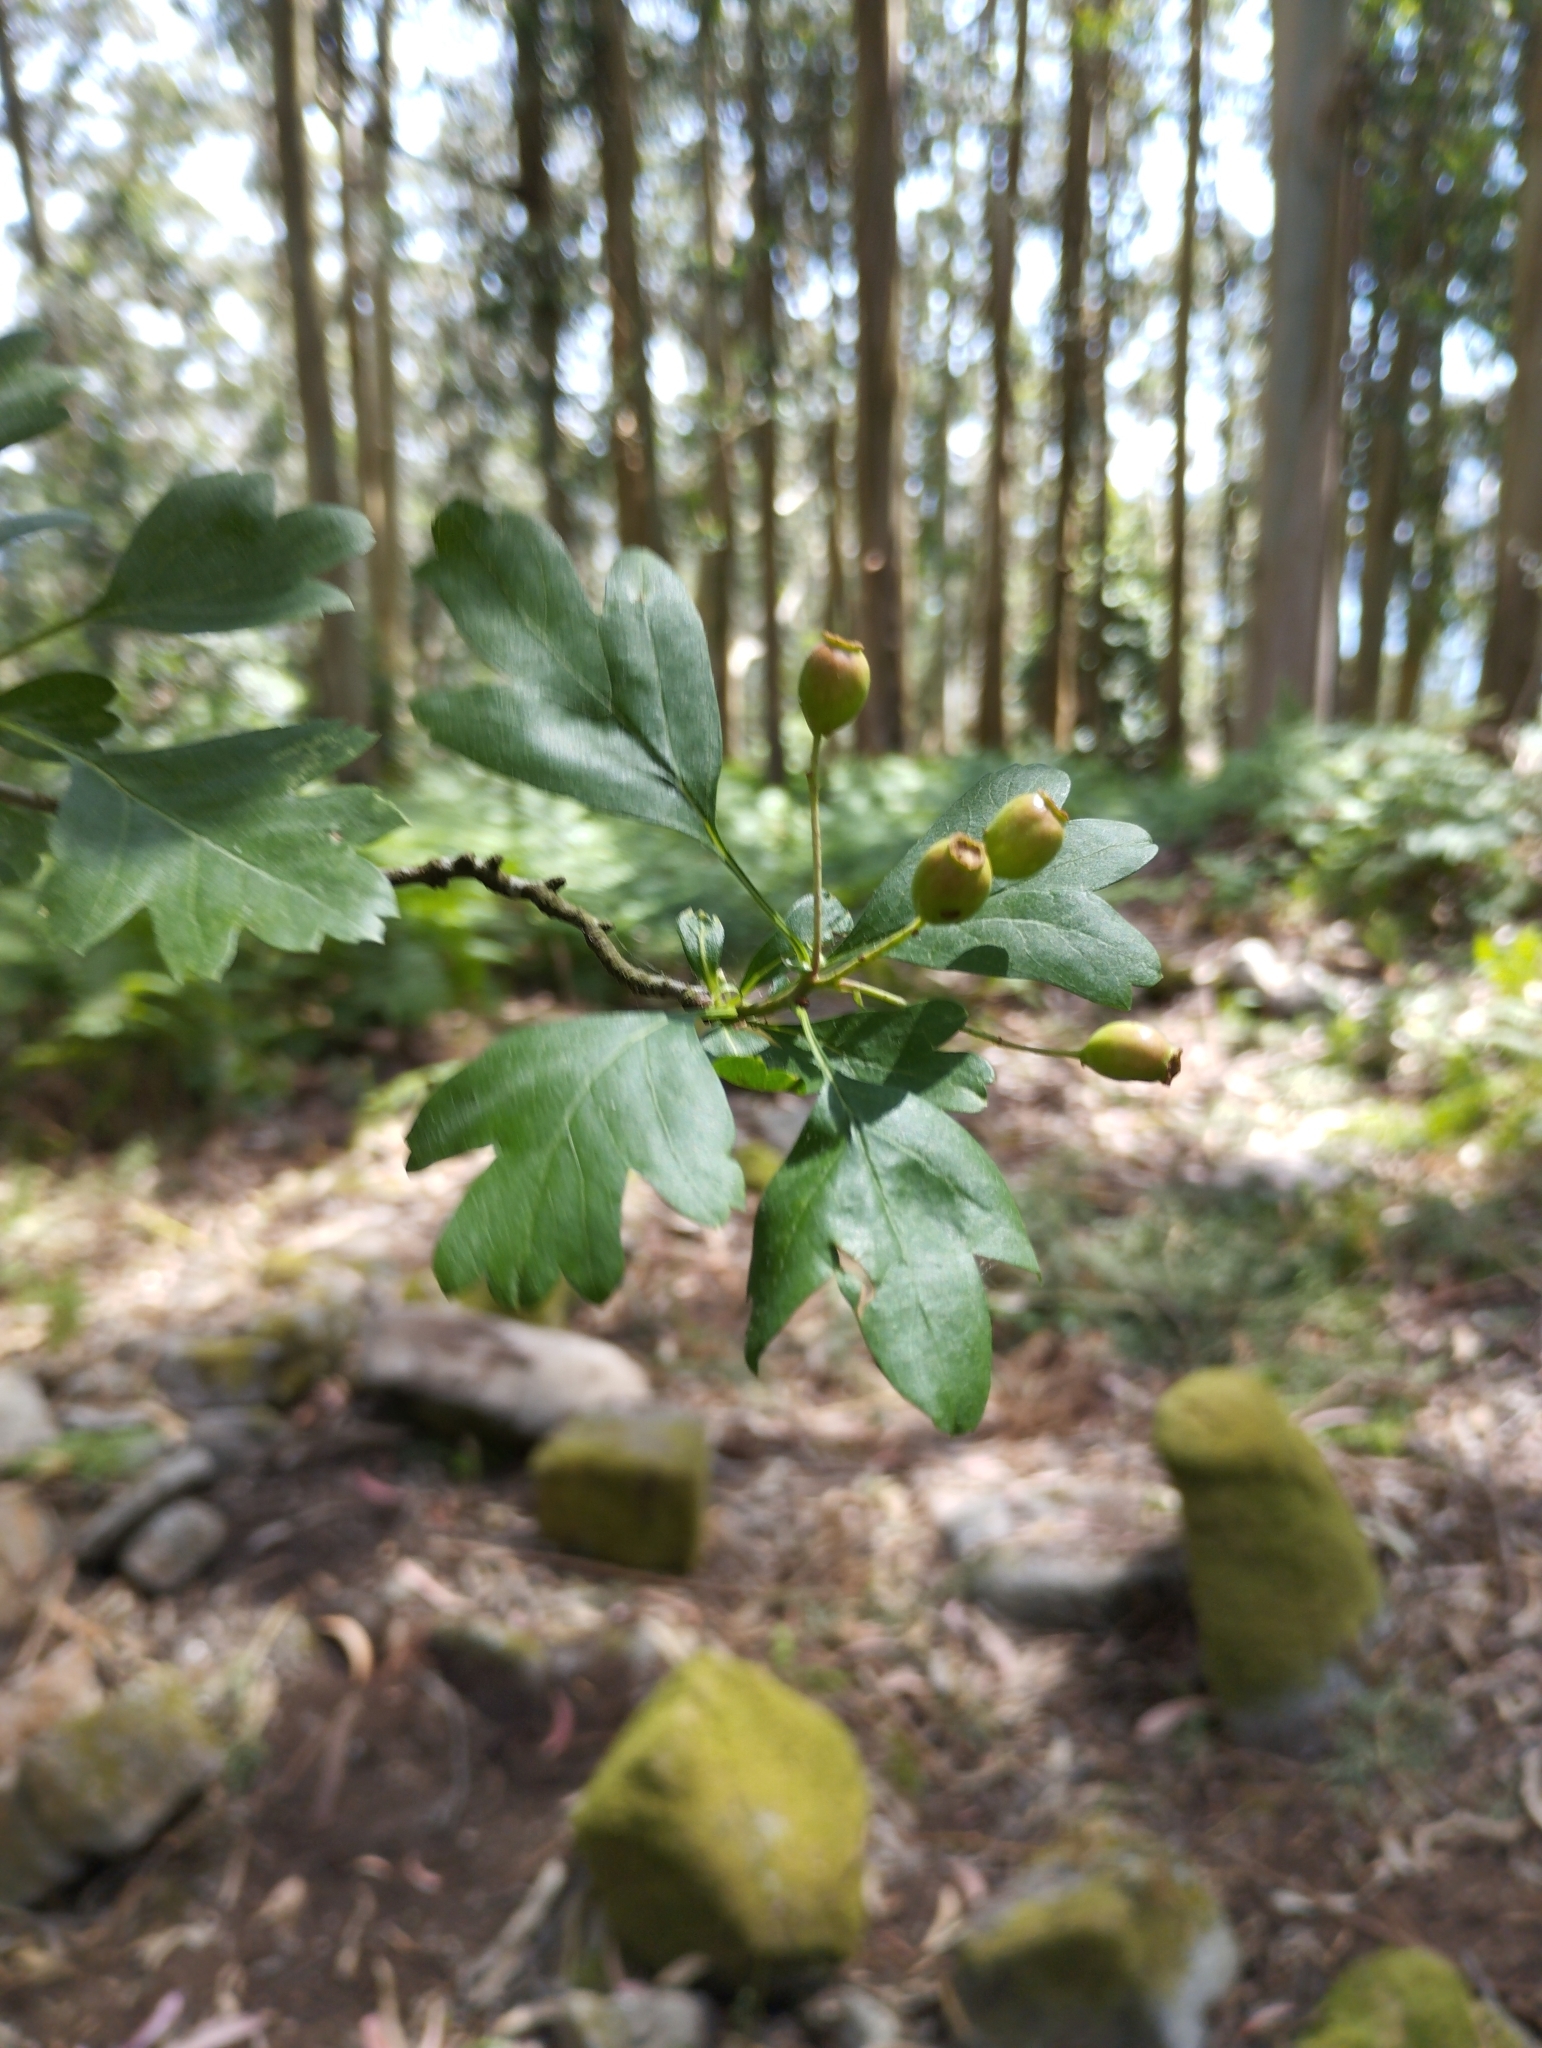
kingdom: Plantae
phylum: Tracheophyta
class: Magnoliopsida
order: Rosales
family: Rosaceae
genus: Crataegus
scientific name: Crataegus monogyna
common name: Hawthorn
